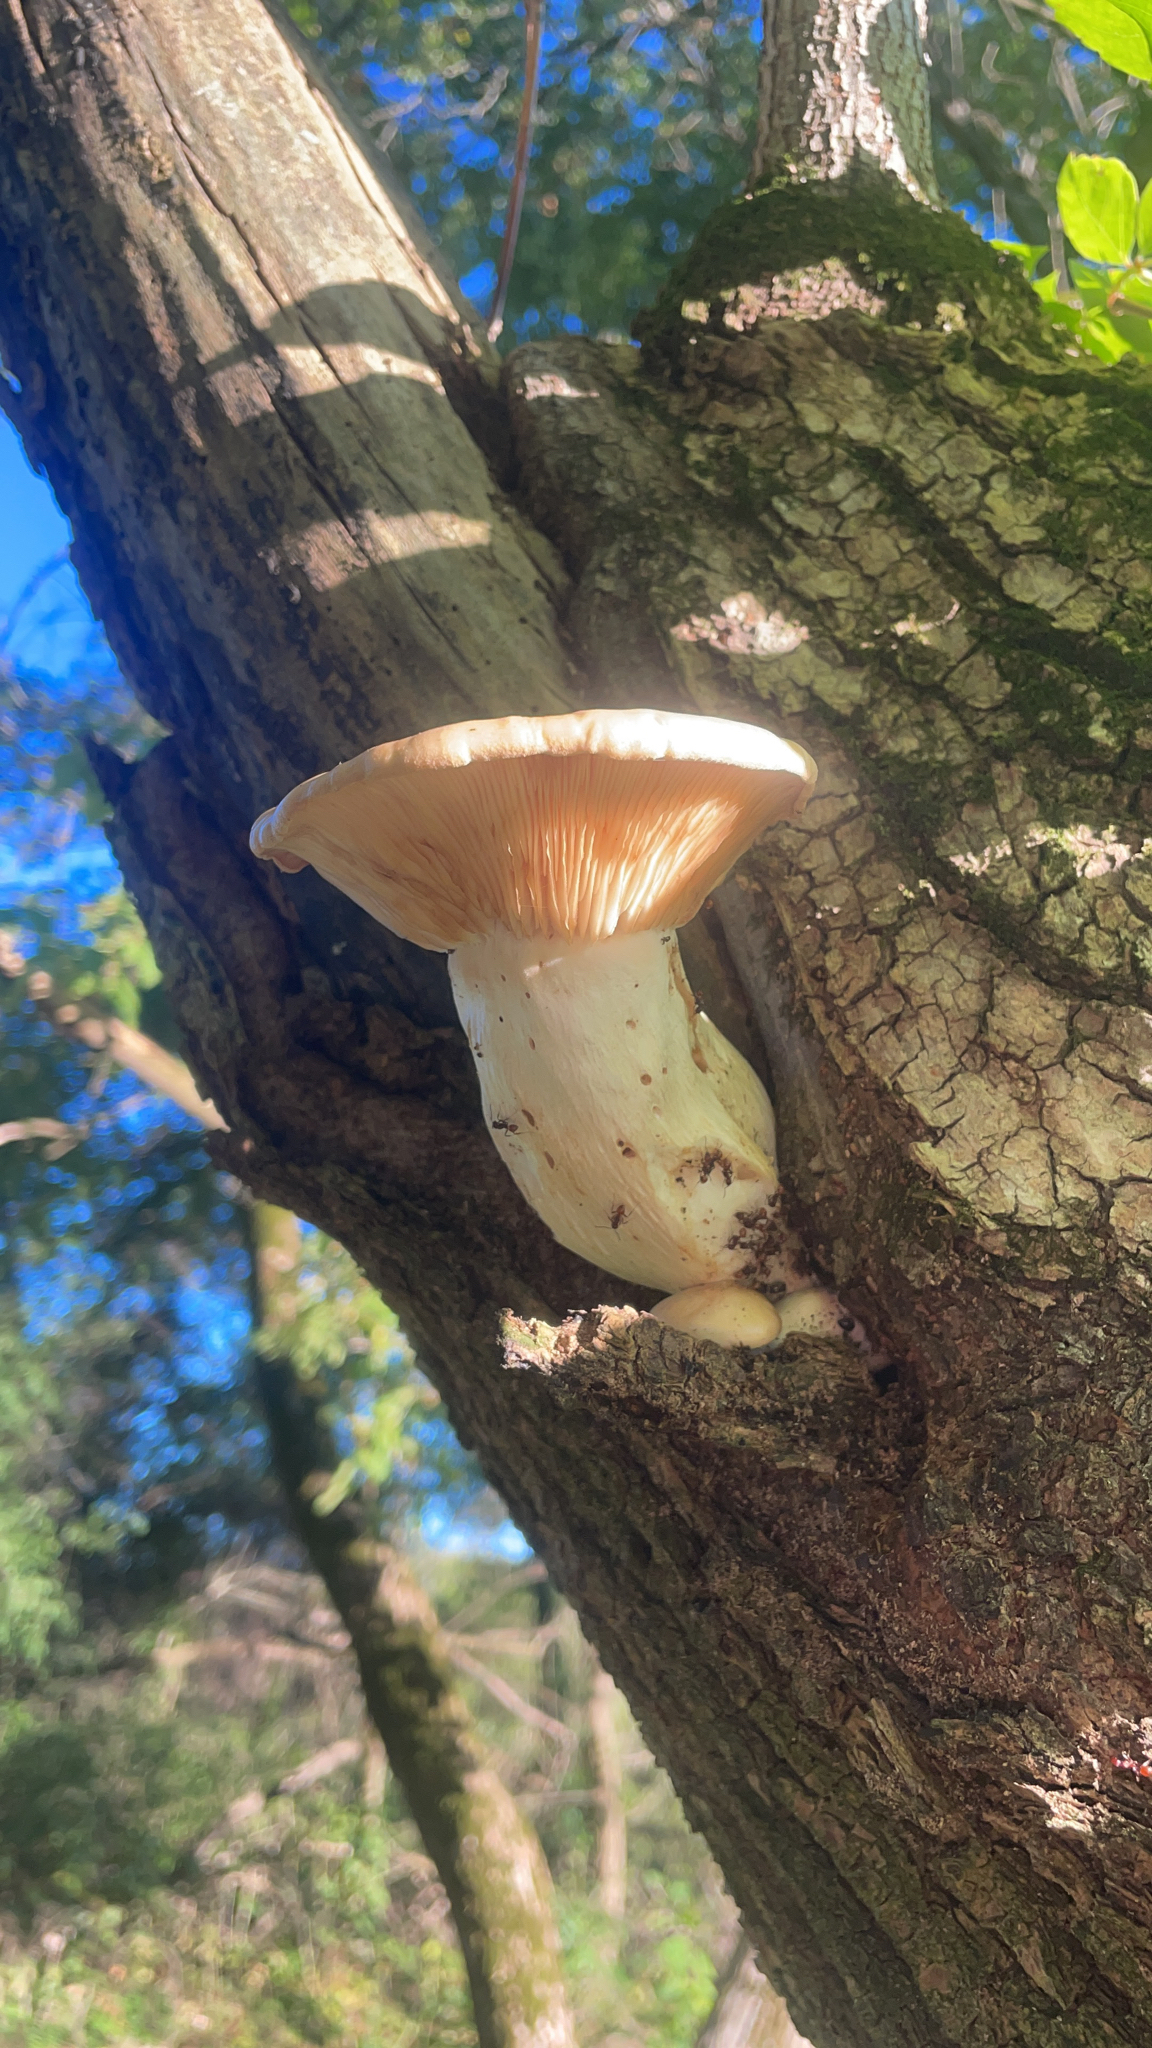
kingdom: Fungi
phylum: Basidiomycota
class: Agaricomycetes
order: Agaricales
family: Lyophyllaceae
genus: Hypsizygus
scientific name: Hypsizygus ulmarius
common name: Elm leech
